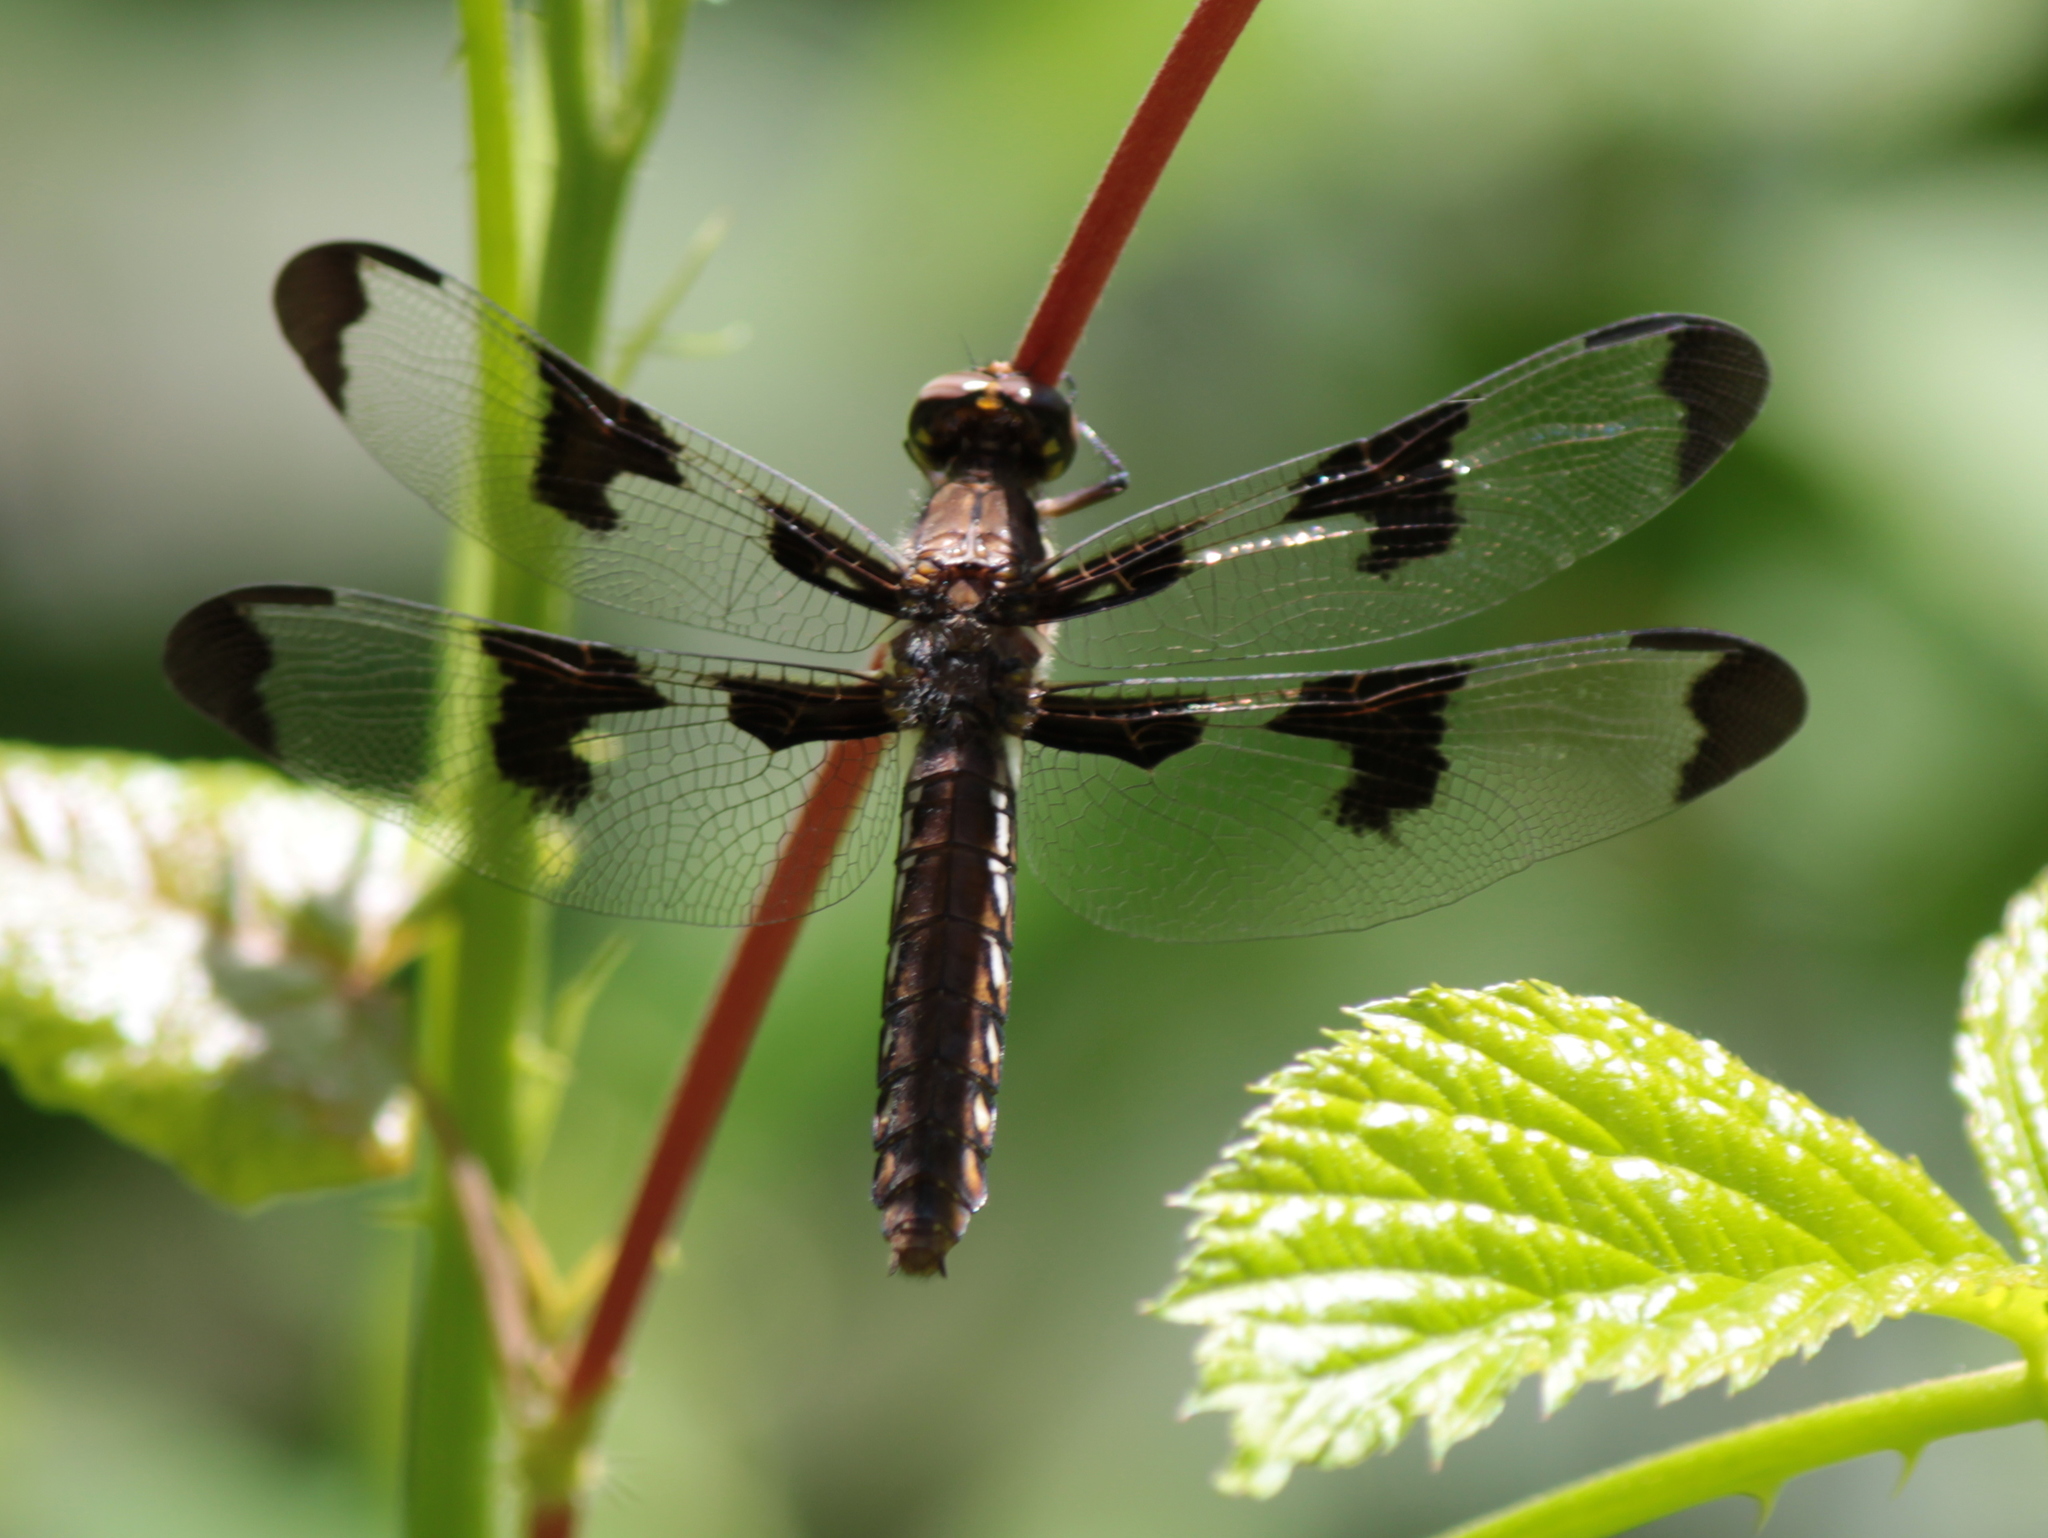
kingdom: Animalia
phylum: Arthropoda
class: Insecta
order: Odonata
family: Libellulidae
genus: Plathemis
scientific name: Plathemis lydia
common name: Common whitetail
